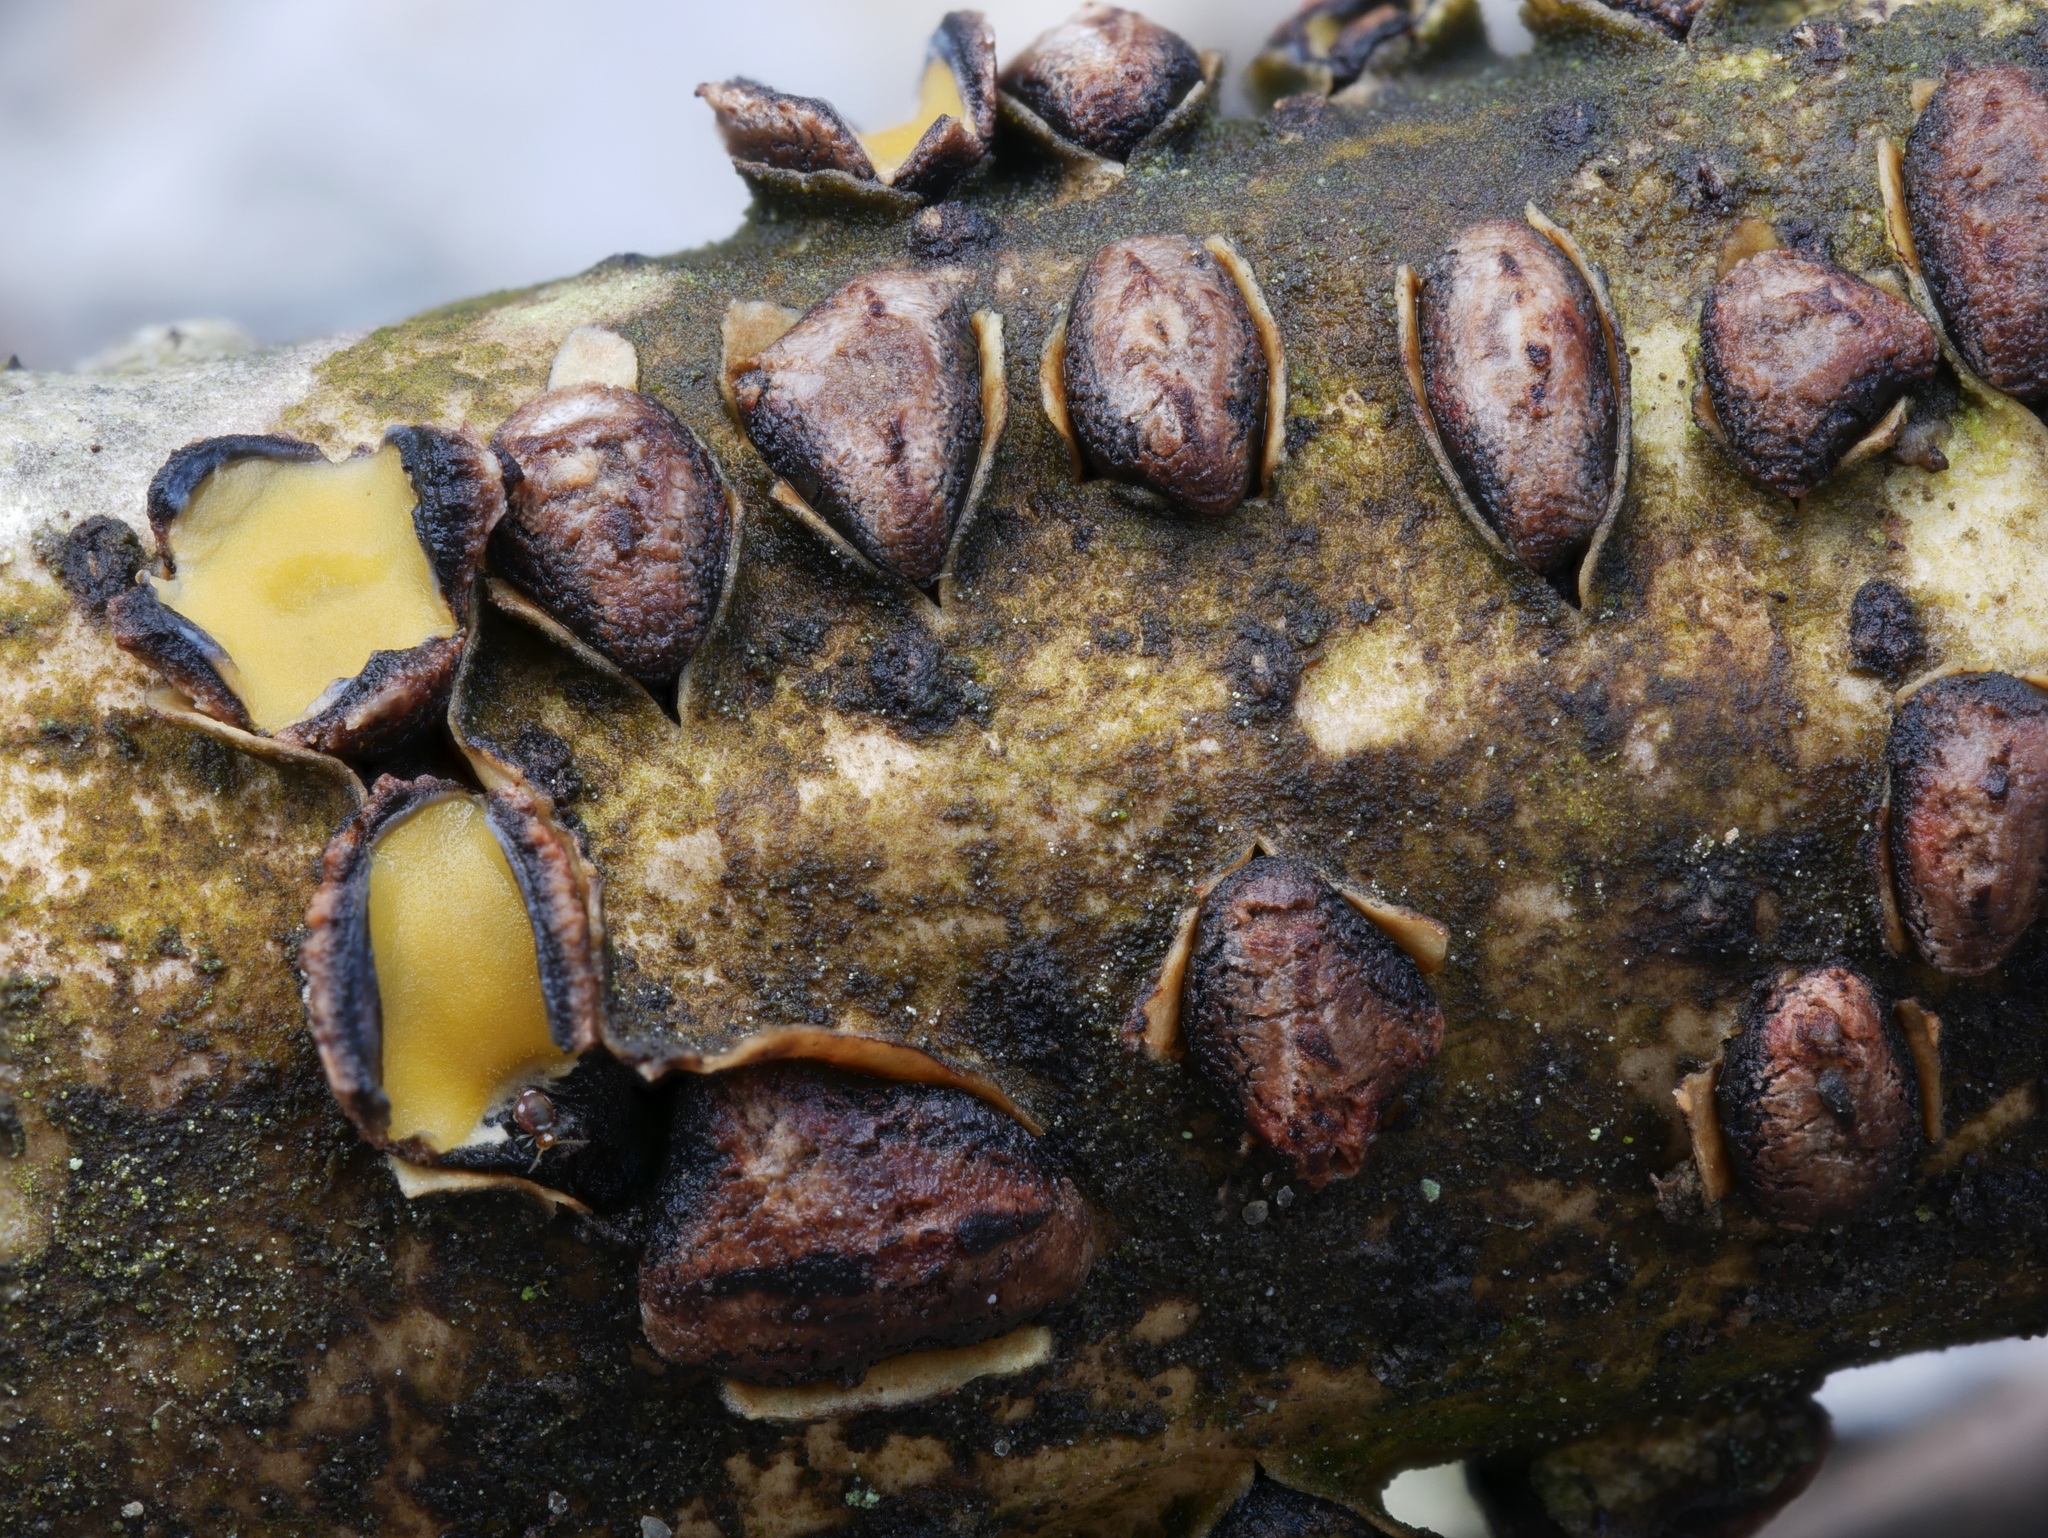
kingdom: Fungi
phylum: Ascomycota
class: Leotiomycetes
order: Rhytismatales
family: Rhytismataceae
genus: Coccomyces
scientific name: Coccomyces triangularis
